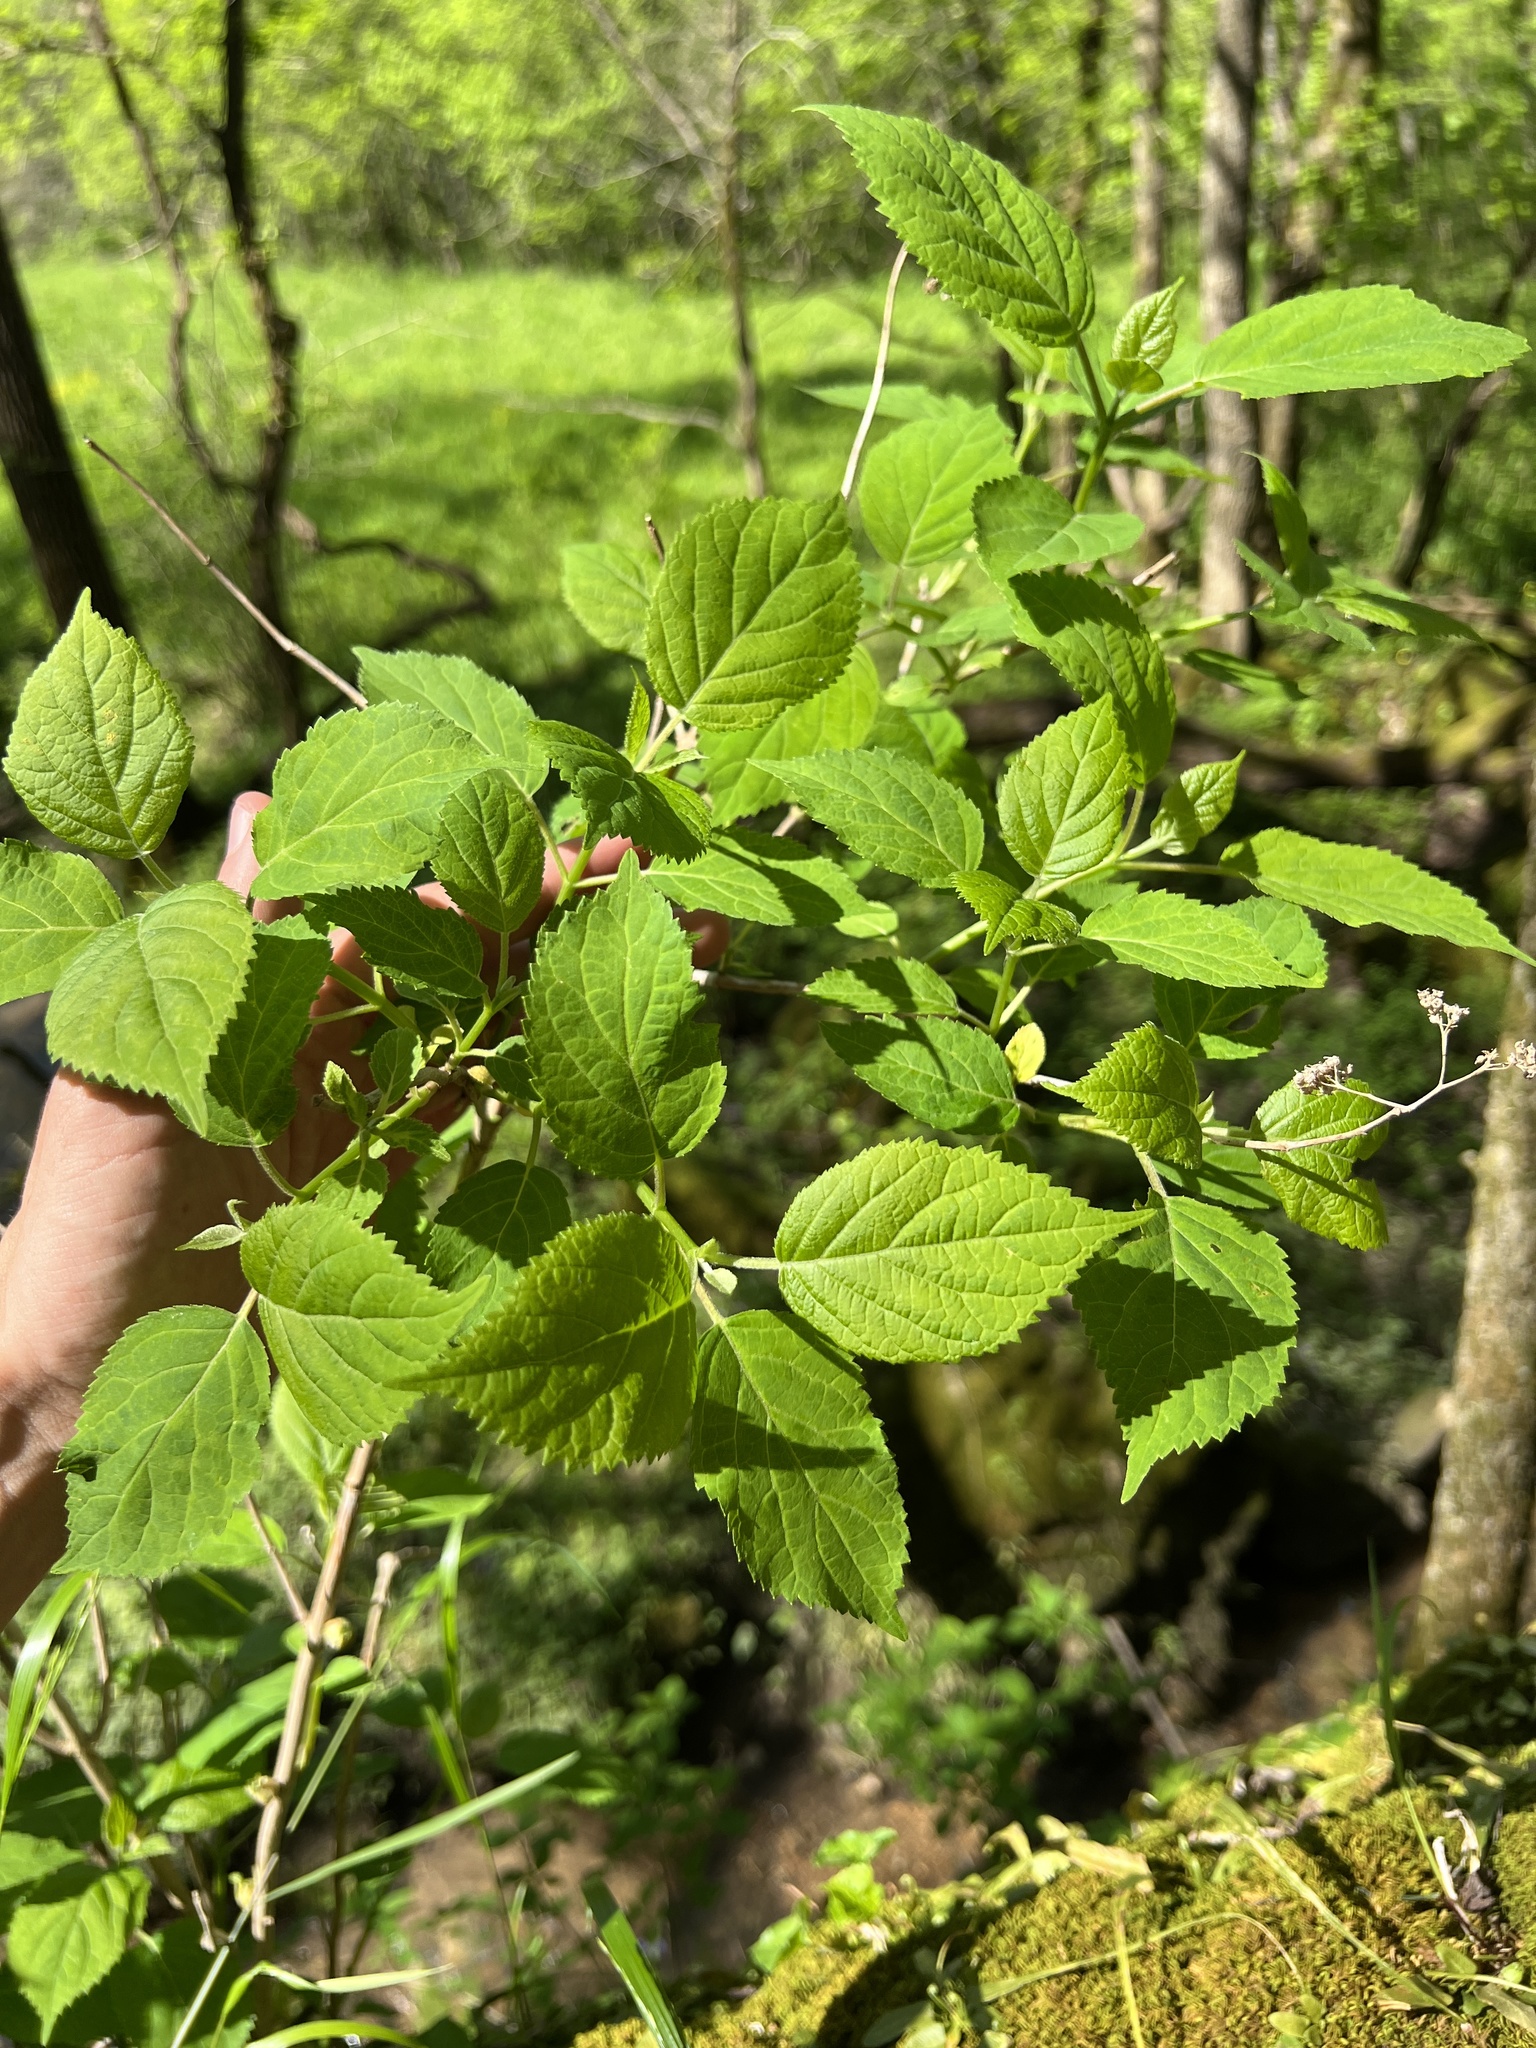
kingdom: Plantae
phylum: Tracheophyta
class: Magnoliopsida
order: Cornales
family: Hydrangeaceae
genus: Hydrangea
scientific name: Hydrangea arborescens
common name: Sevenbark
